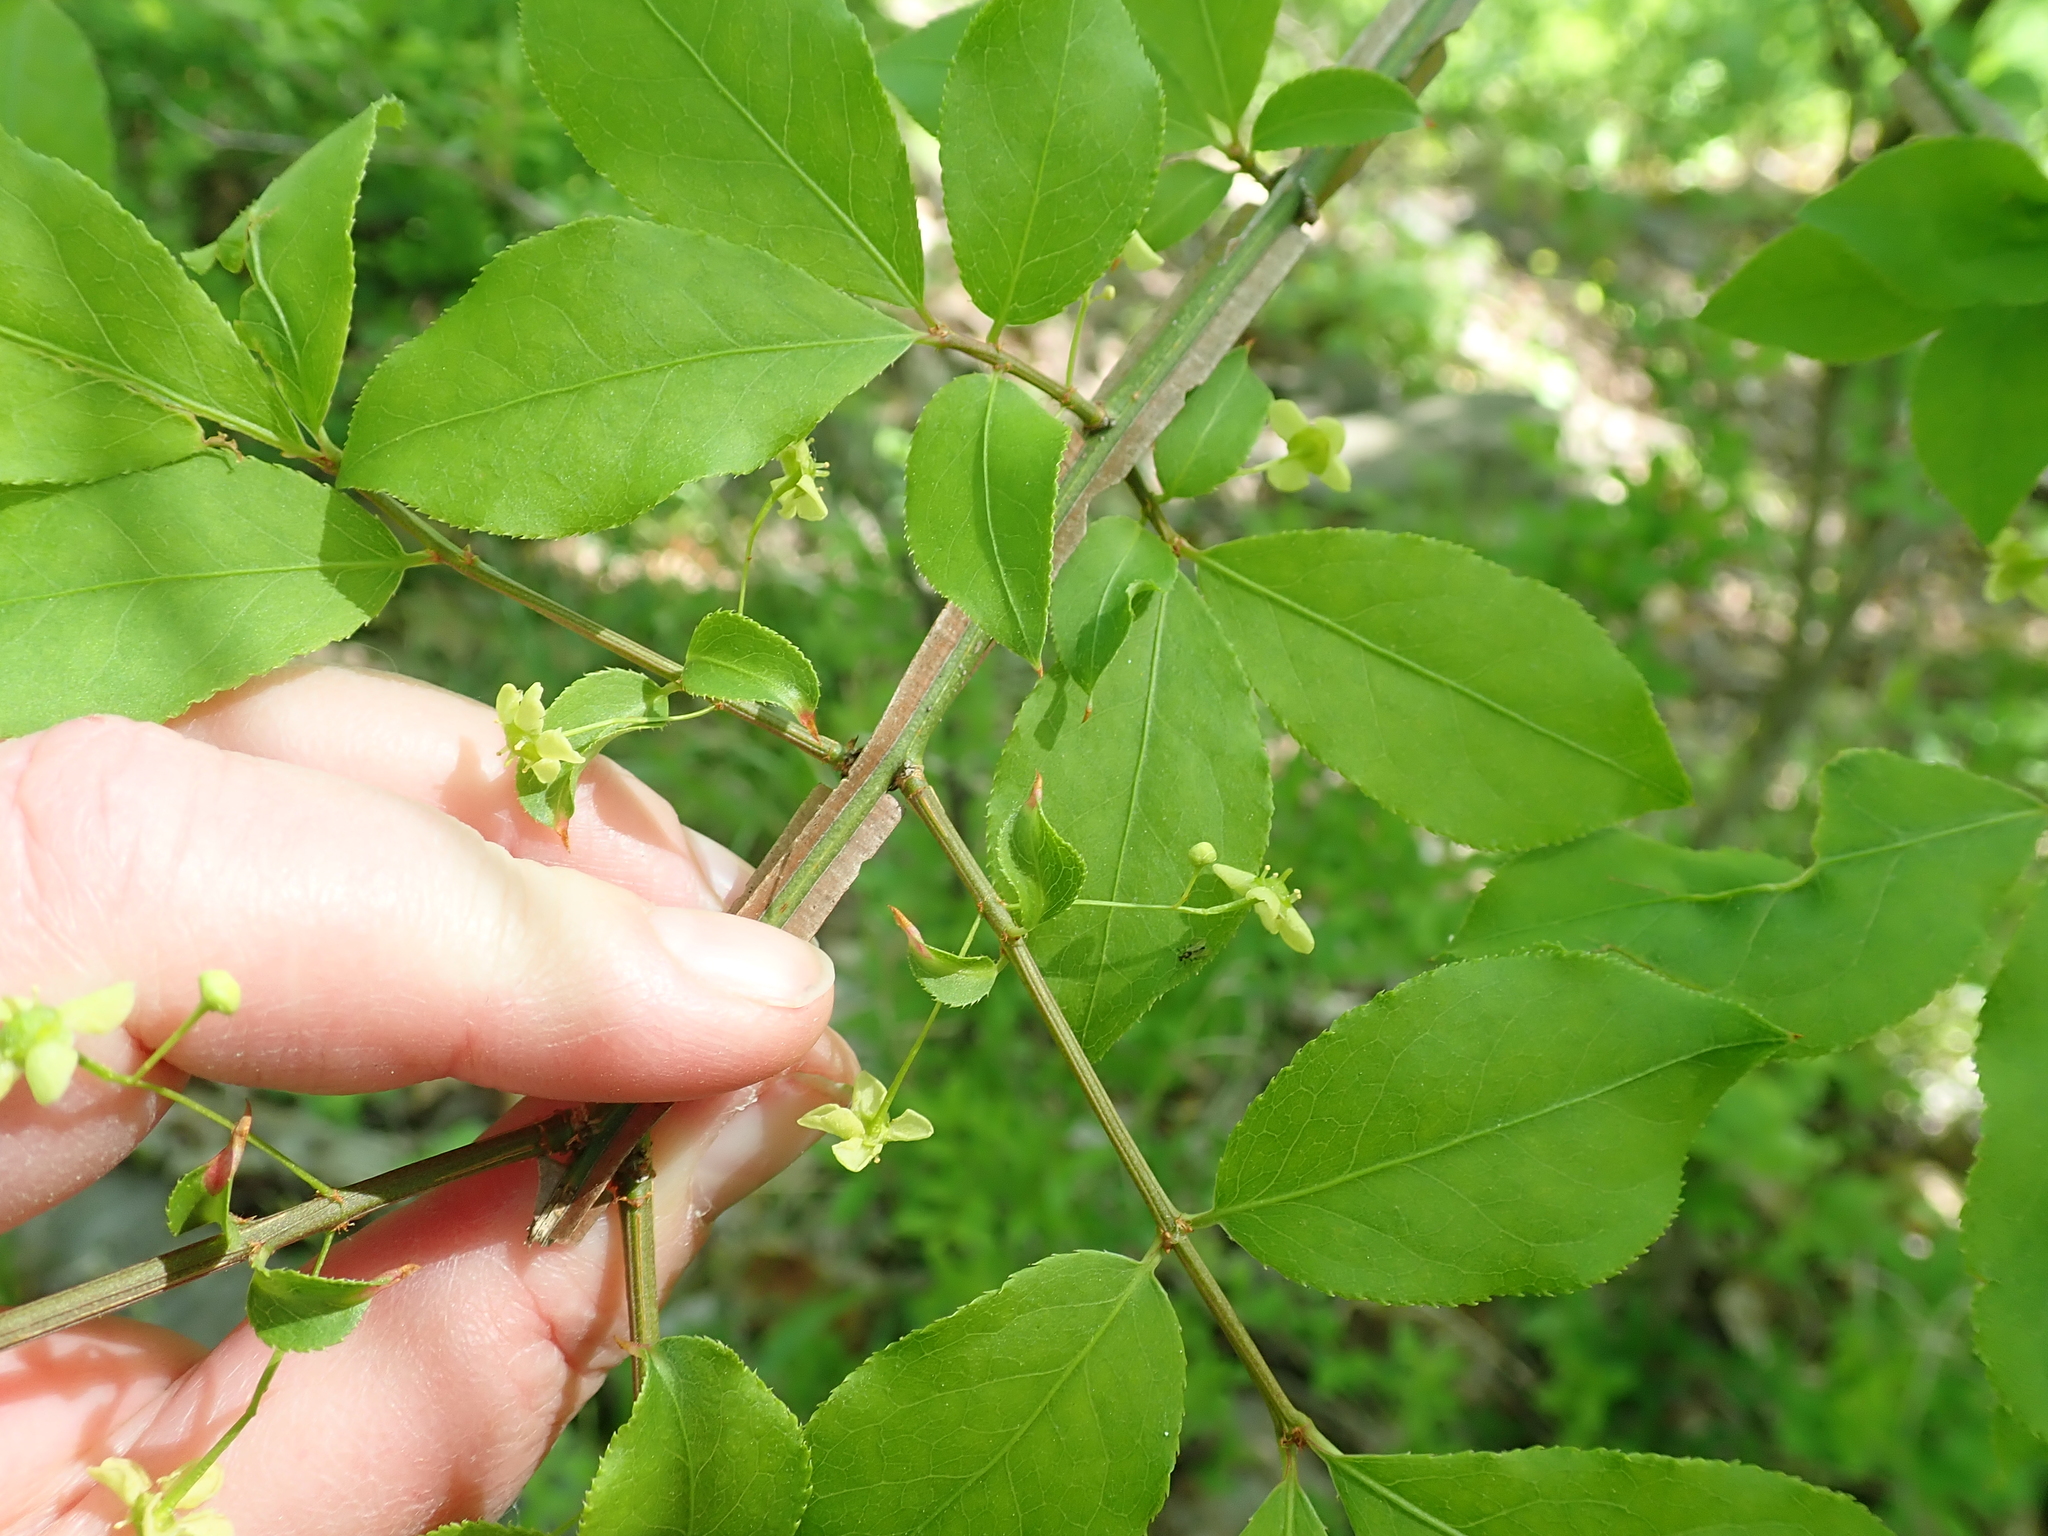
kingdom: Plantae
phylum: Tracheophyta
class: Magnoliopsida
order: Celastrales
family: Celastraceae
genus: Euonymus
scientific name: Euonymus alatus
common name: Winged euonymus
